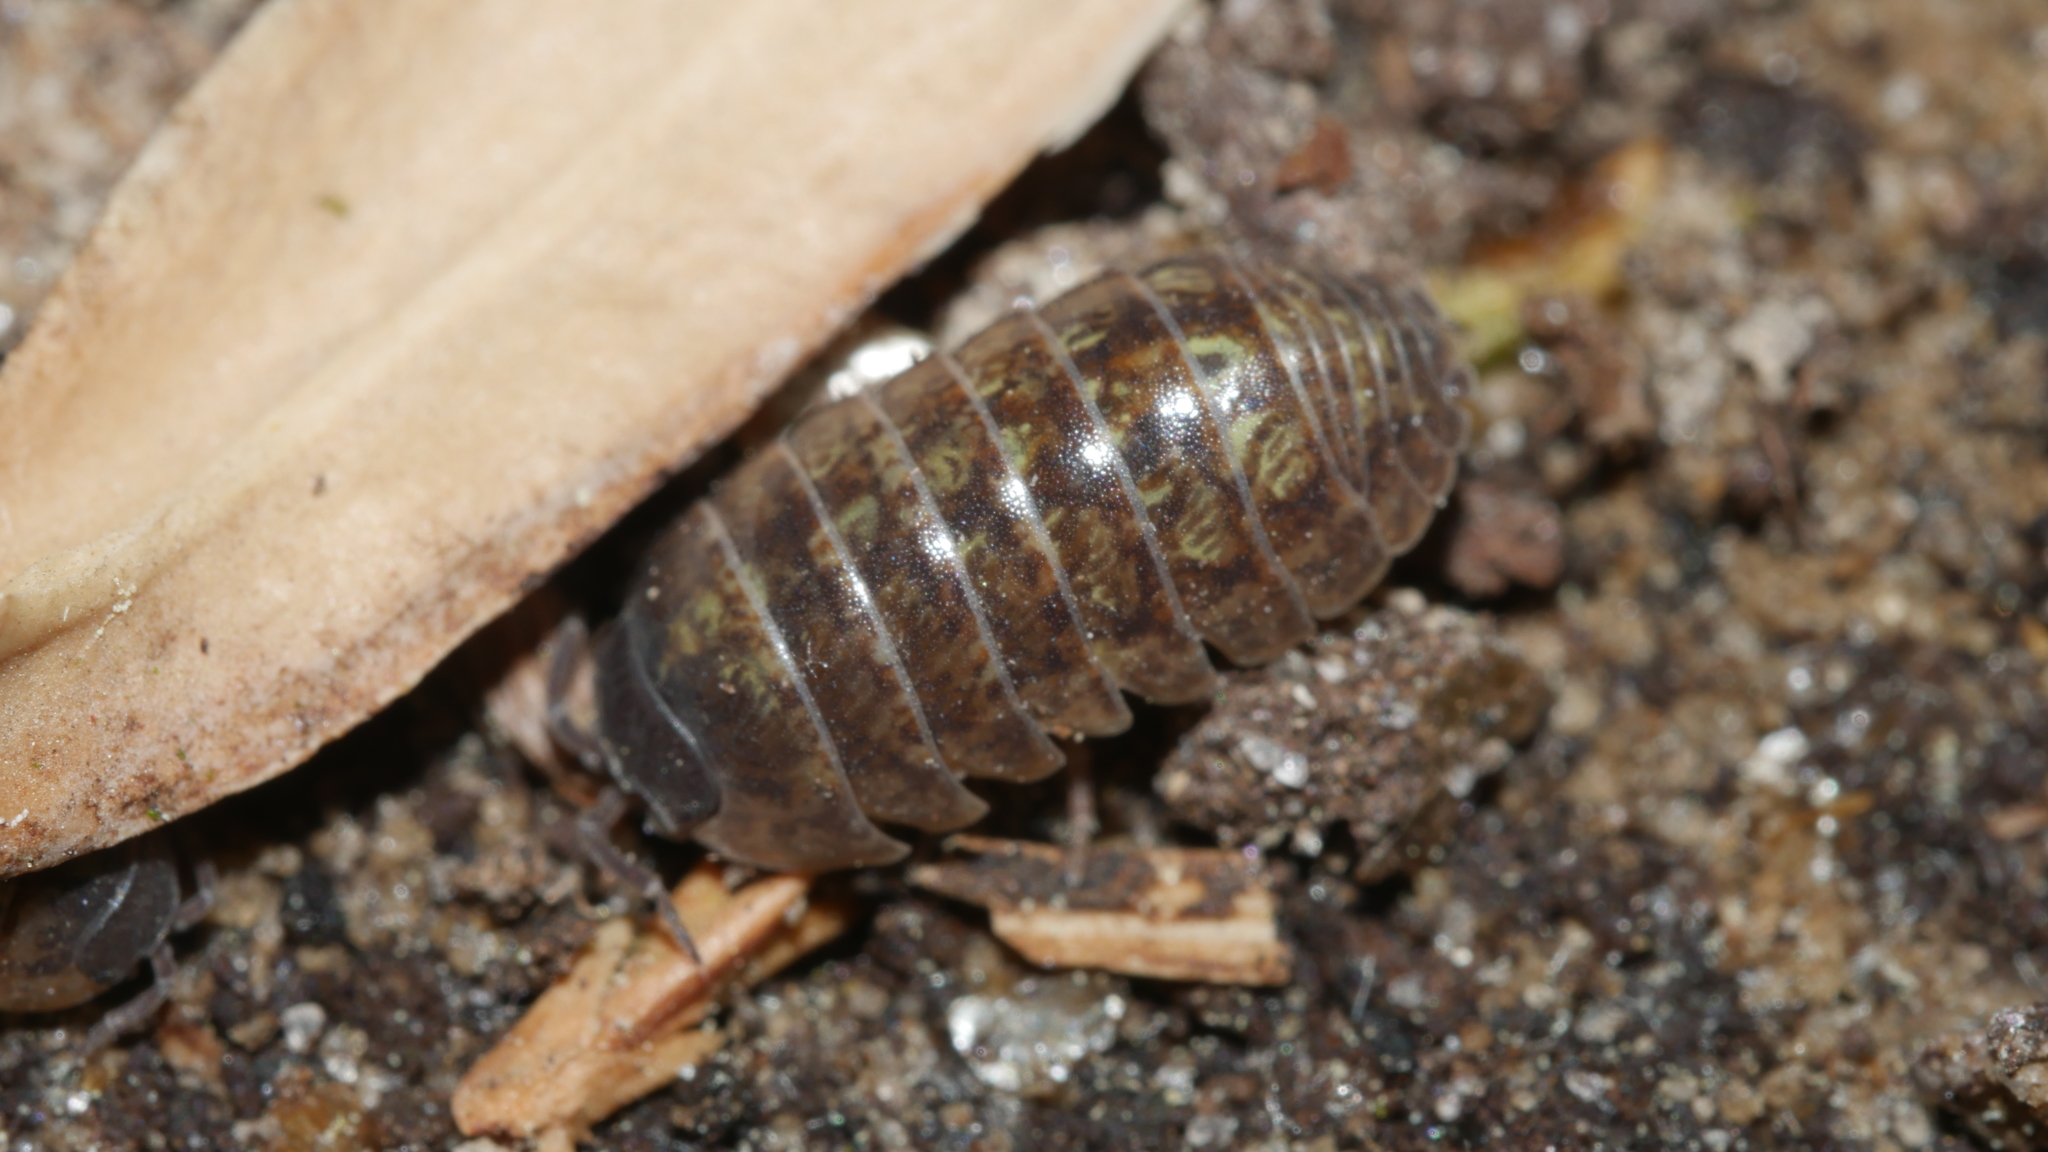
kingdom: Animalia
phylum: Arthropoda
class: Malacostraca
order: Isopoda
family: Armadillidiidae
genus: Armadillidium
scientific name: Armadillidium vulgare
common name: Common pill woodlouse
